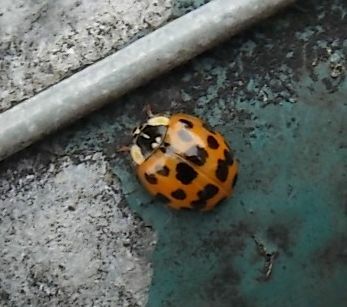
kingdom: Animalia
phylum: Arthropoda
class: Insecta
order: Coleoptera
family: Coccinellidae
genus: Harmonia
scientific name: Harmonia axyridis
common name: Harlequin ladybird
